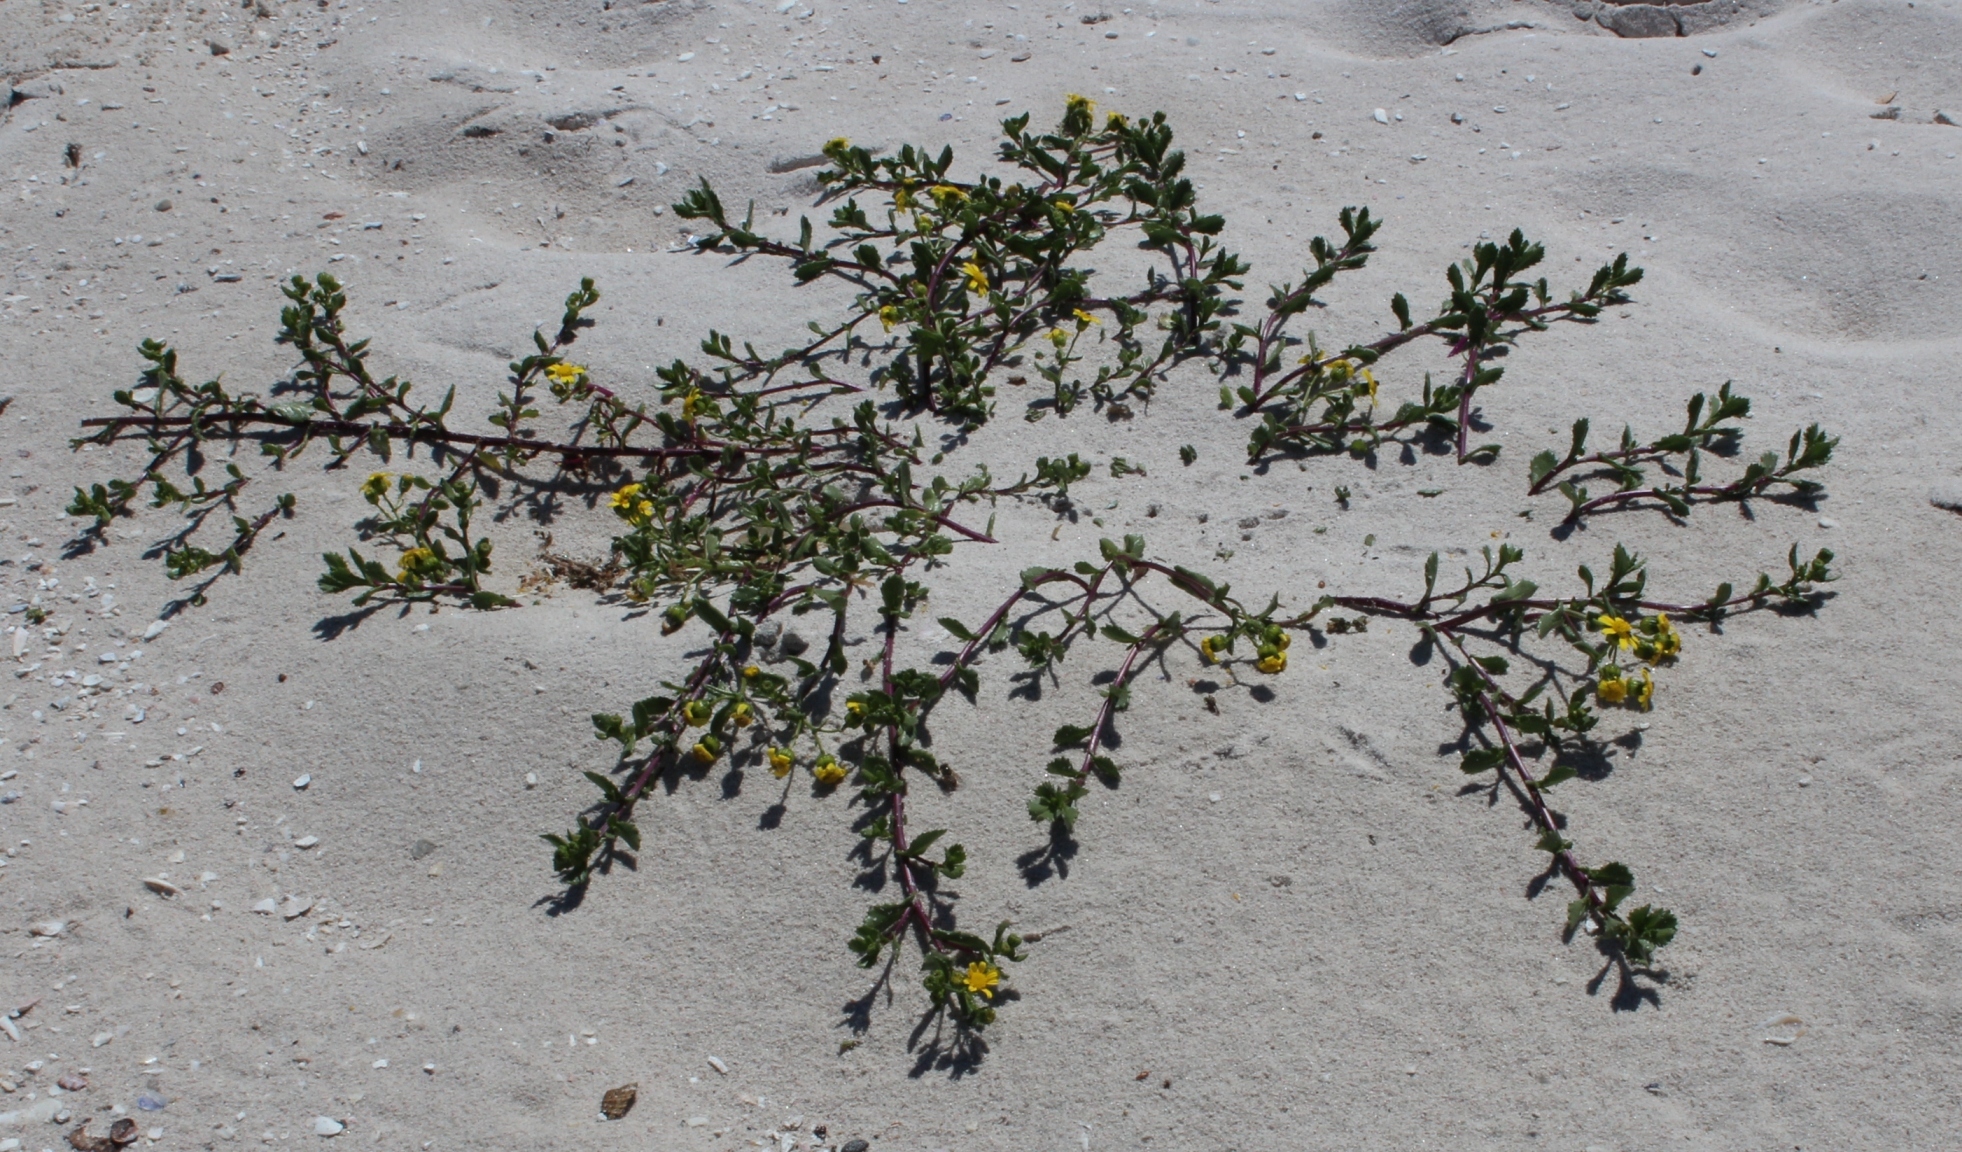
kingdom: Plantae
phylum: Tracheophyta
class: Magnoliopsida
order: Lamiales
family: Scrophulariaceae
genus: Manulea
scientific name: Manulea tomentosa
